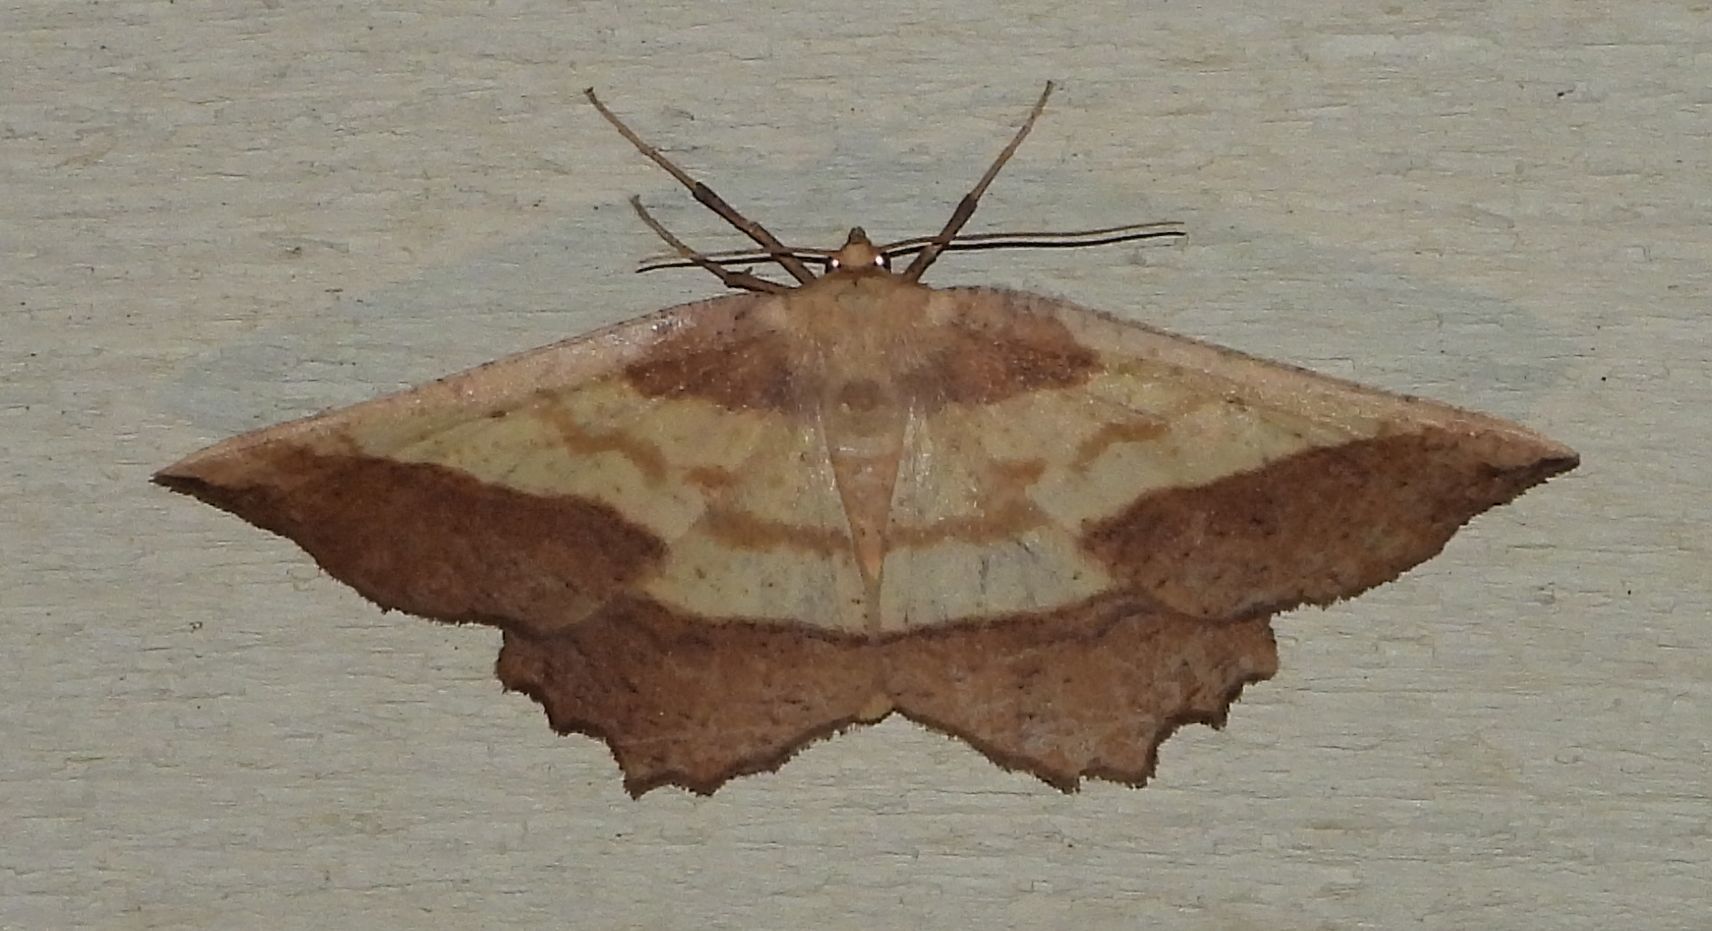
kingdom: Animalia
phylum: Arthropoda
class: Insecta
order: Lepidoptera
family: Geometridae
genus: Euchlaena
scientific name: Euchlaena serrata
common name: Saw wing
